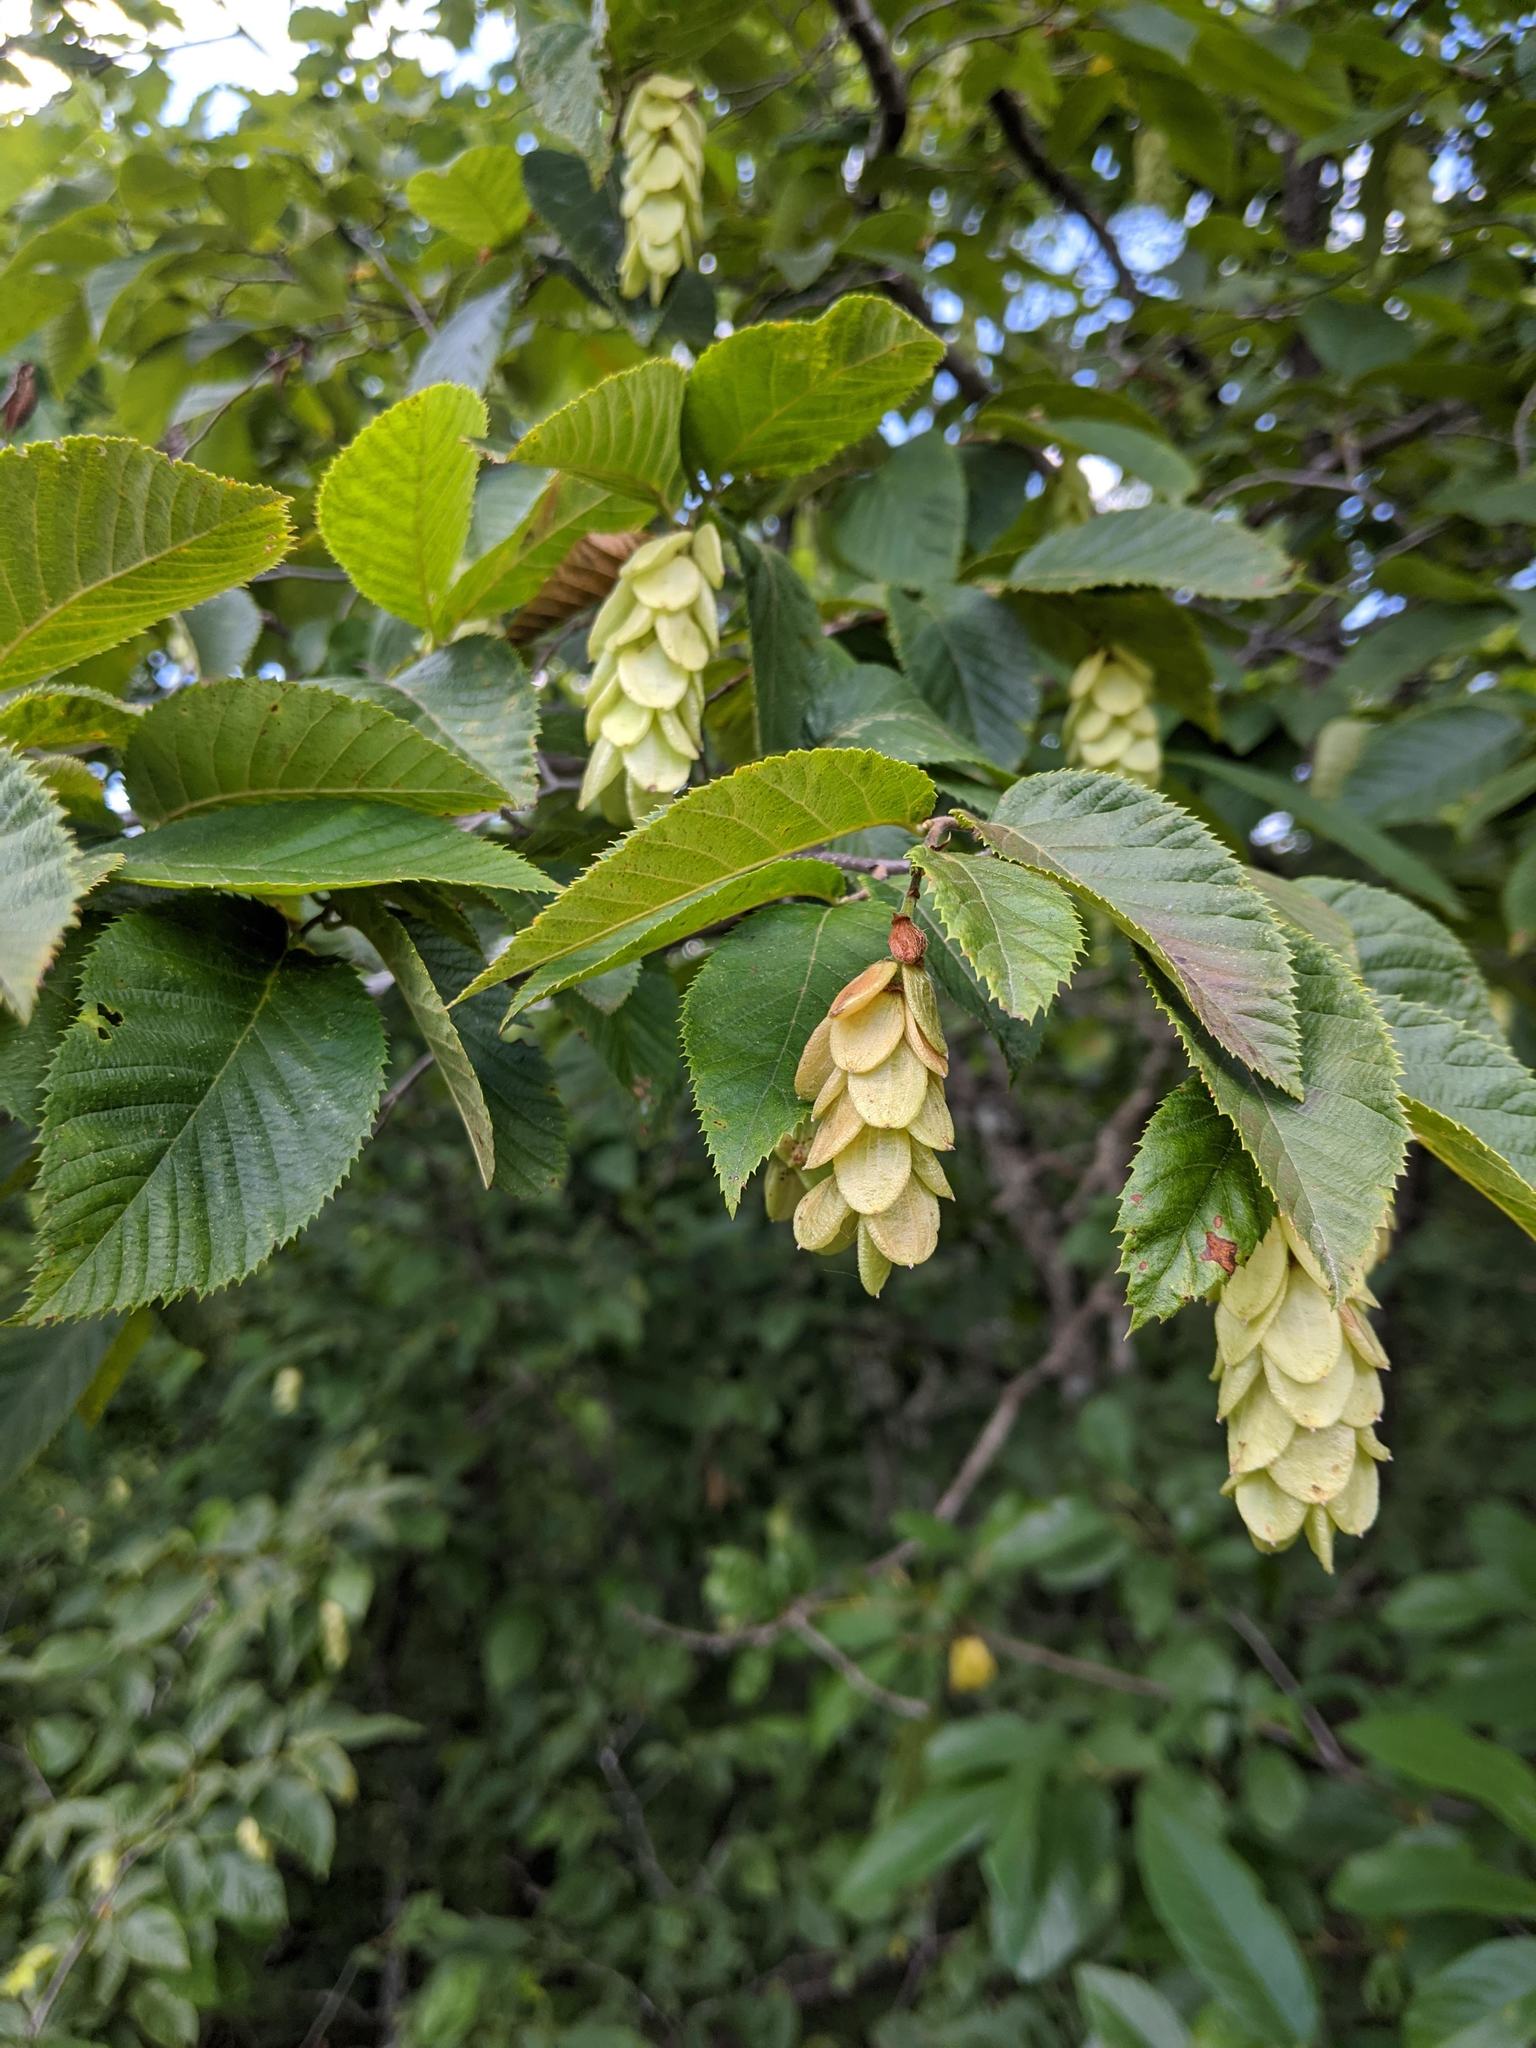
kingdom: Plantae
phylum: Tracheophyta
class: Magnoliopsida
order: Fagales
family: Betulaceae
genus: Ostrya
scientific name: Ostrya virginiana
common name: Ironwood
